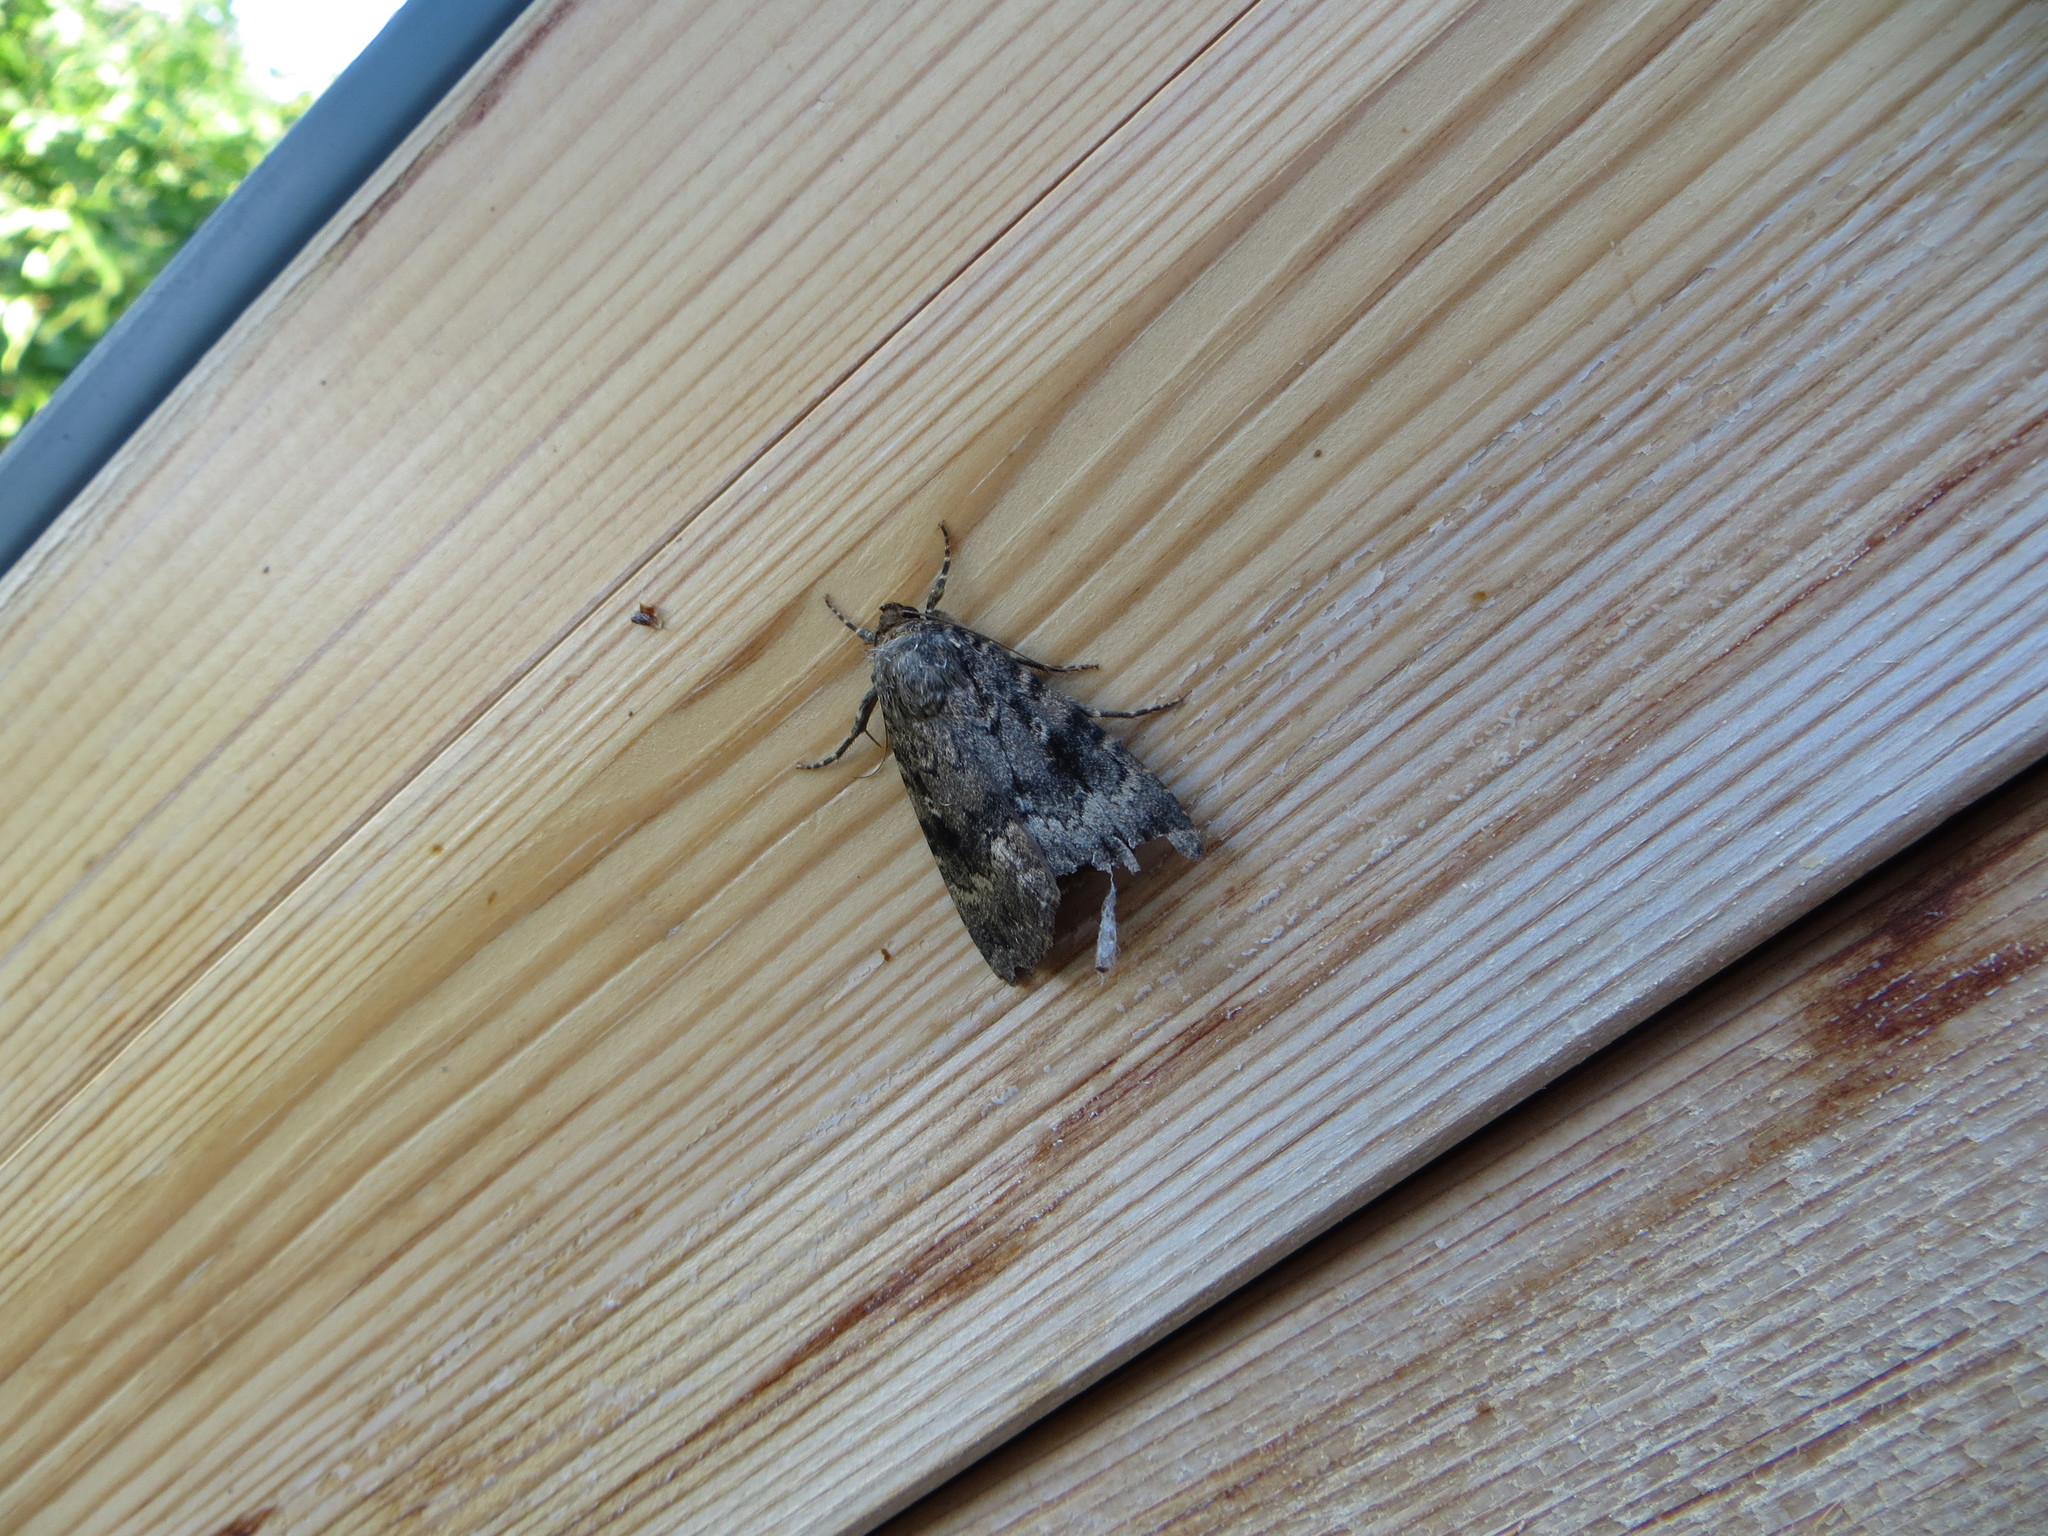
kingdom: Animalia
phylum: Arthropoda
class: Insecta
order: Lepidoptera
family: Noctuidae
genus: Amphipyra
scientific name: Amphipyra berbera
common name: Svensson's copper underwing
